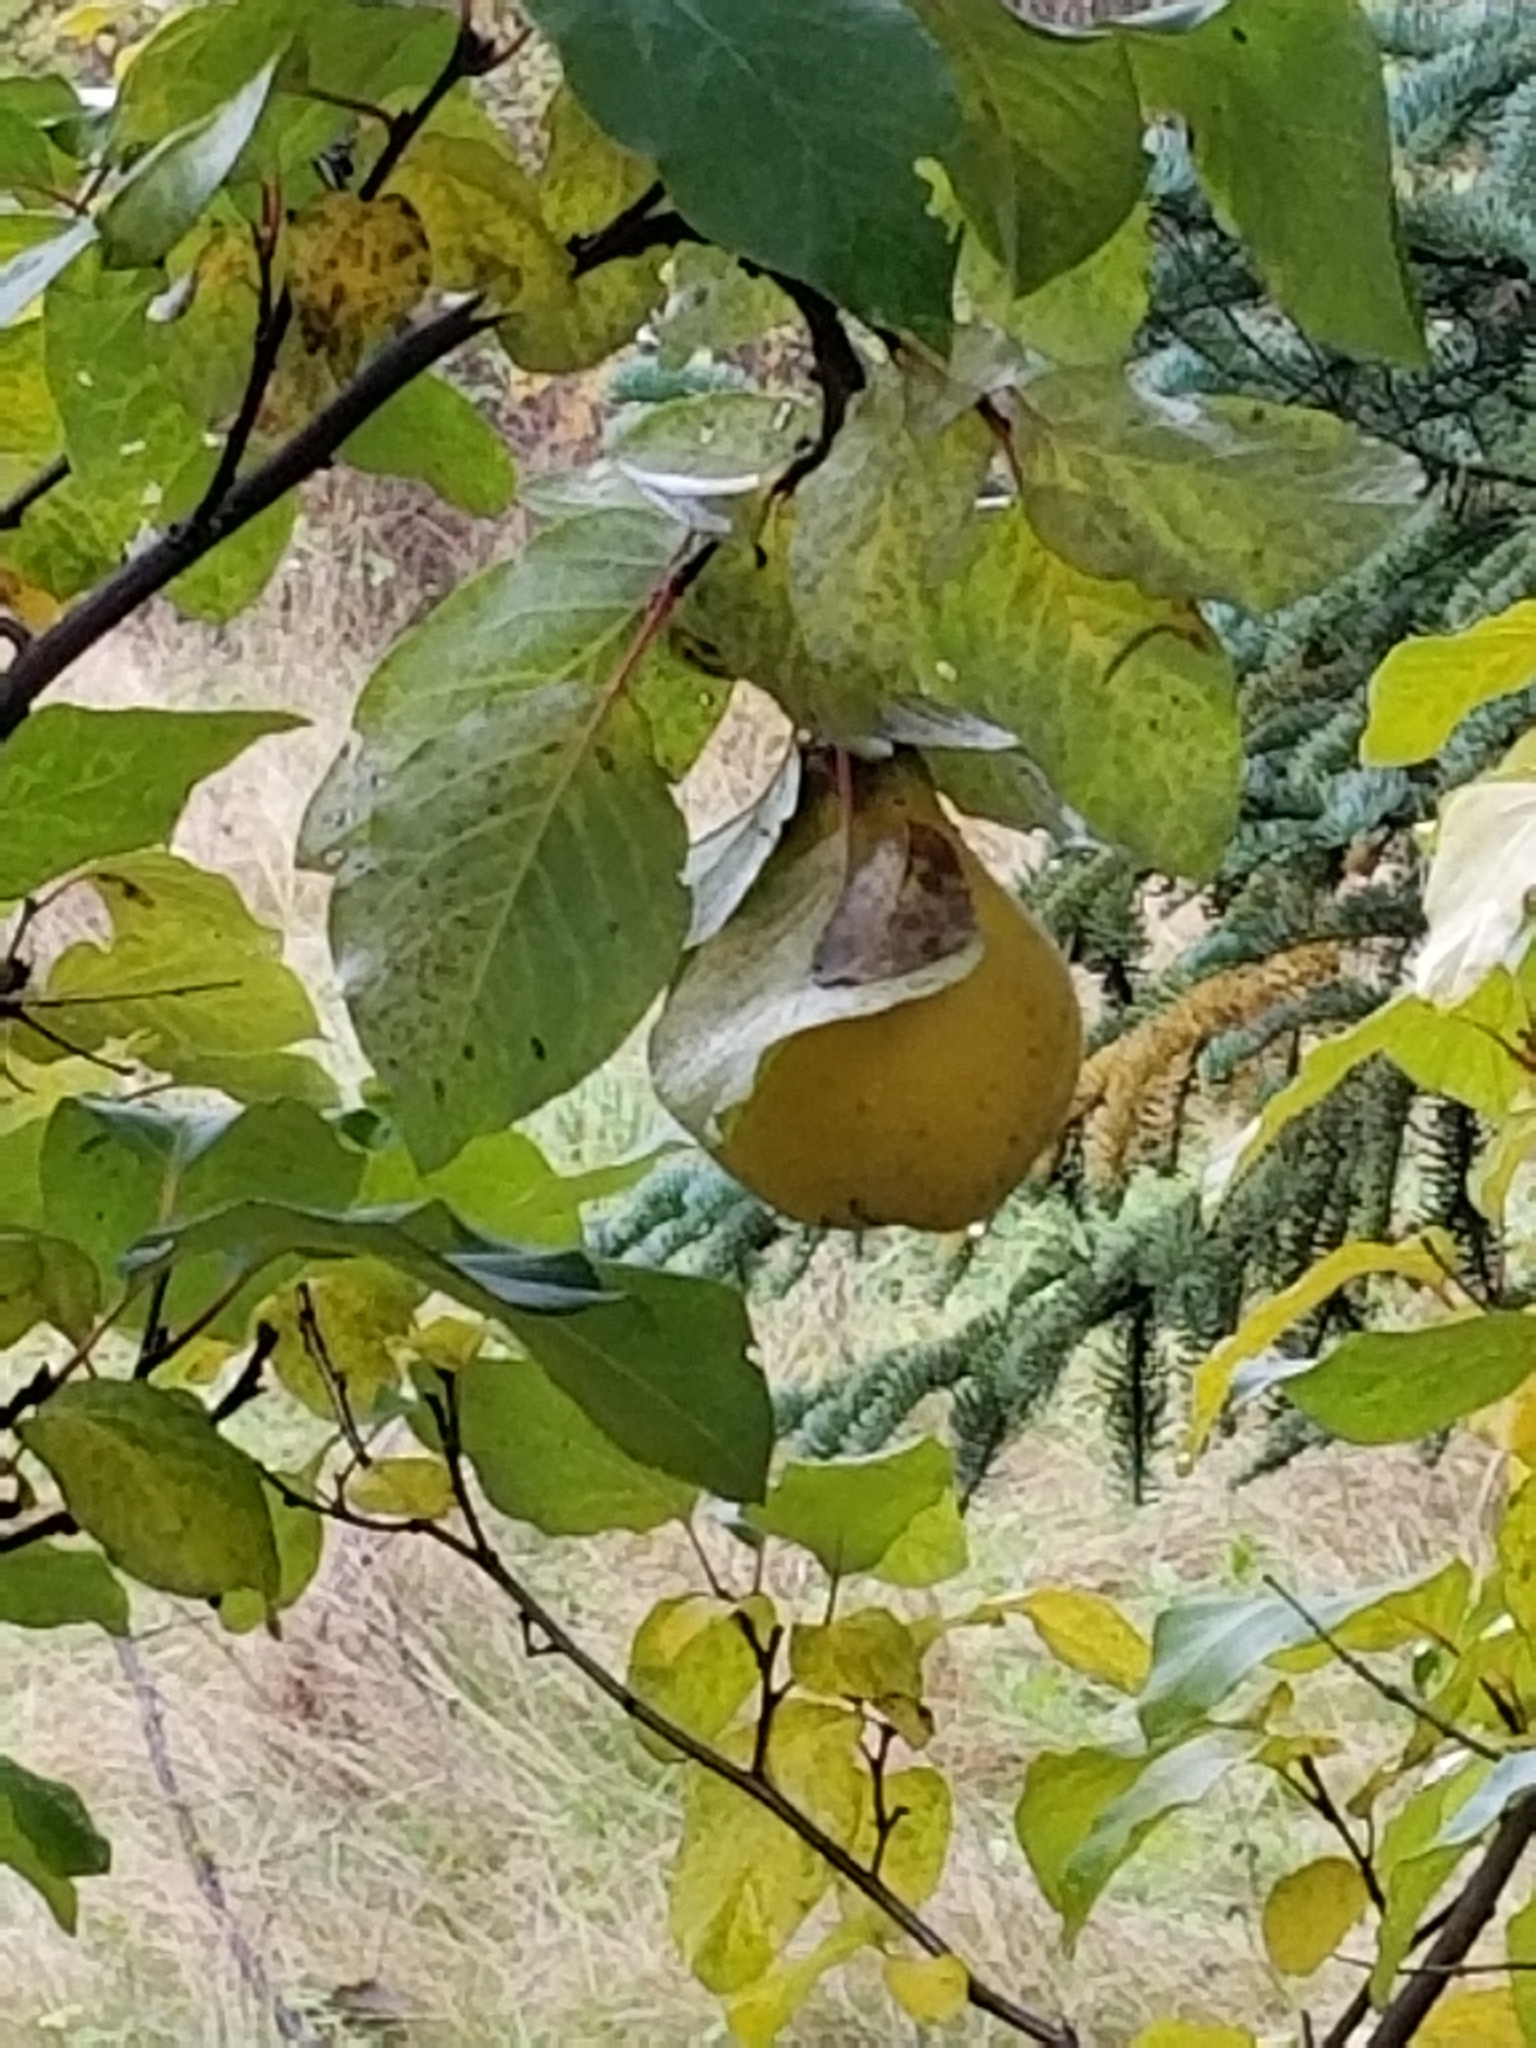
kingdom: Plantae
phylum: Tracheophyta
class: Magnoliopsida
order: Rosales
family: Rosaceae
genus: Cydonia
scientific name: Cydonia oblonga
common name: Quince
